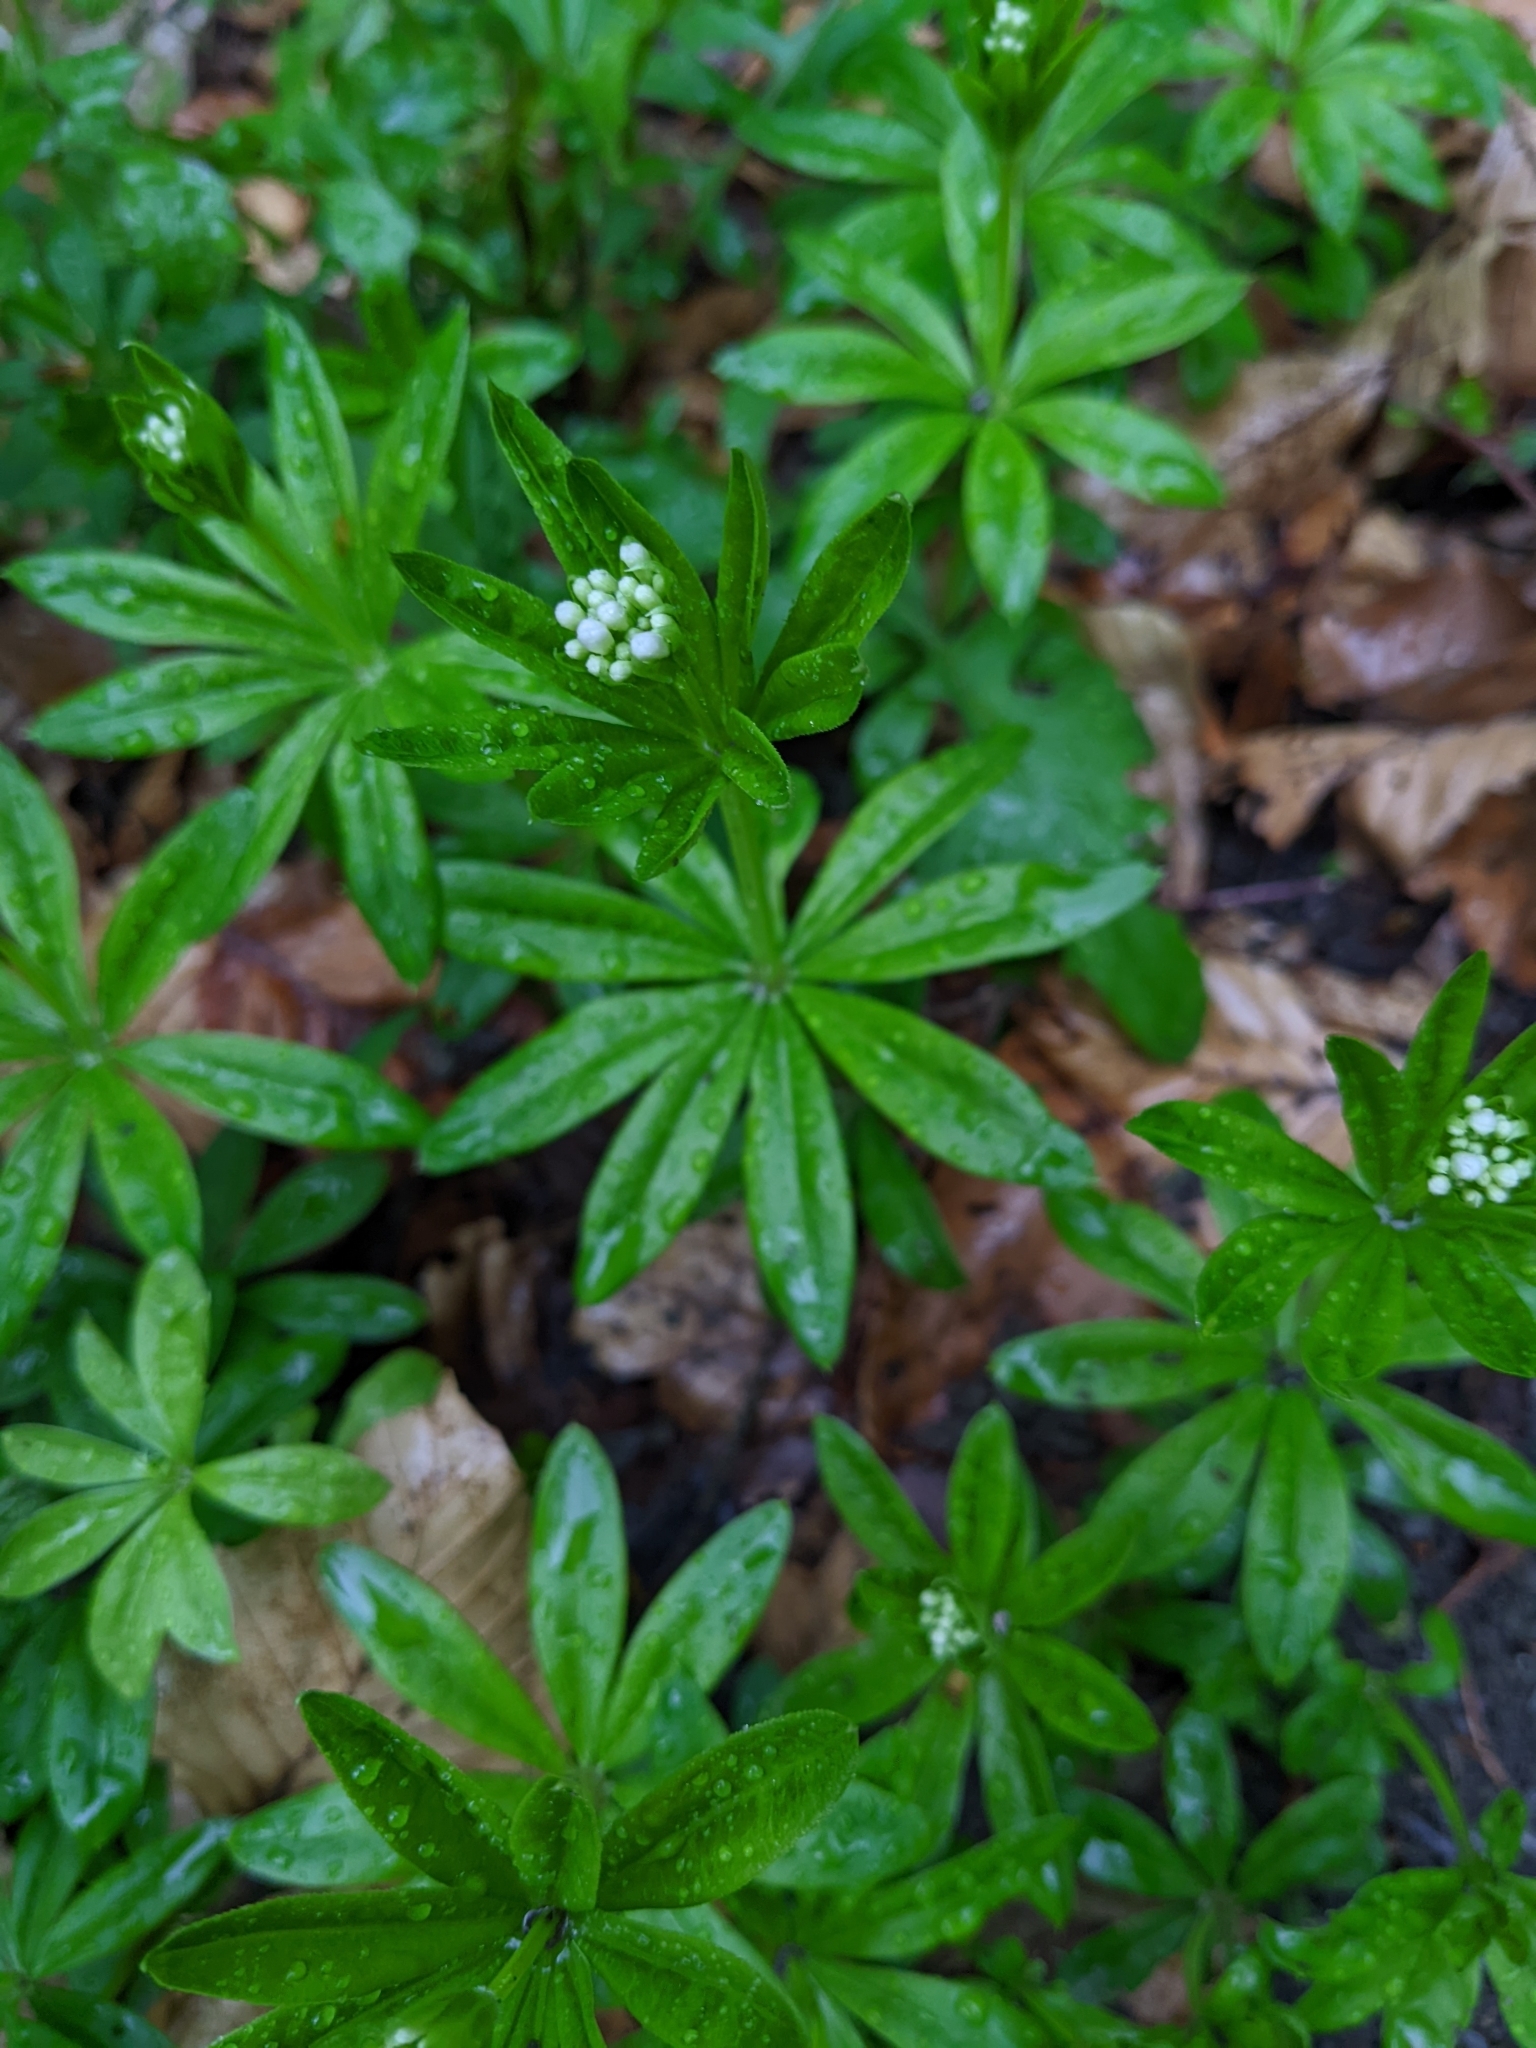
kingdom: Plantae
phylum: Tracheophyta
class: Magnoliopsida
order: Gentianales
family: Rubiaceae
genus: Galium
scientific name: Galium odoratum
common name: Sweet woodruff
